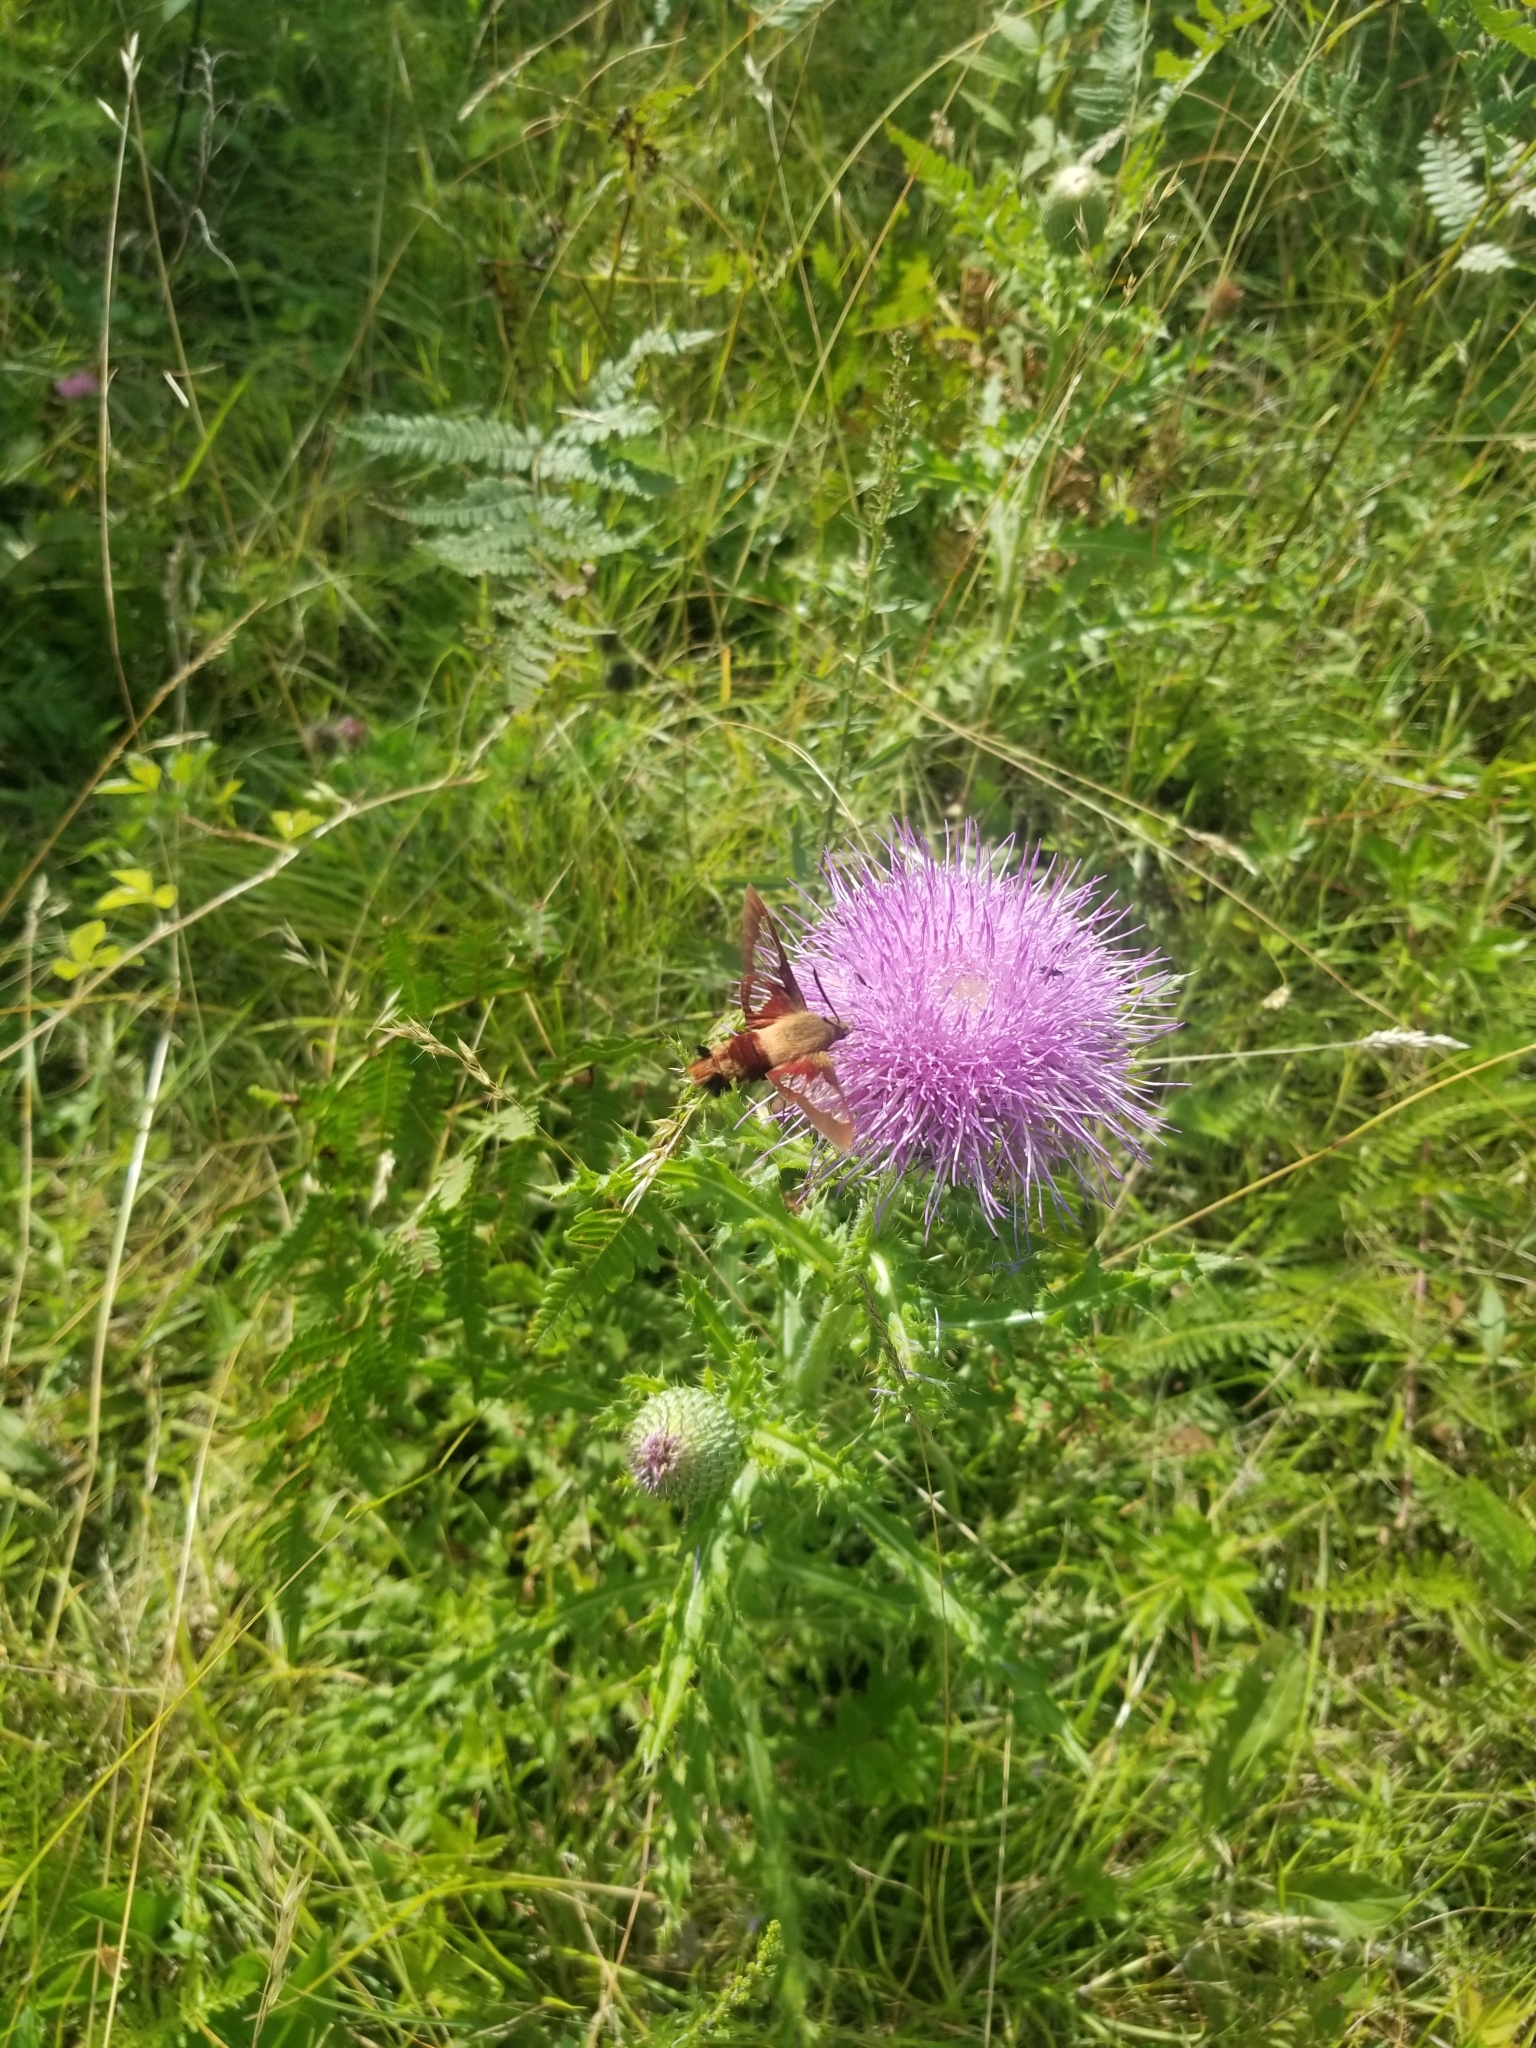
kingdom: Animalia
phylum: Arthropoda
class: Insecta
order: Lepidoptera
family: Sphingidae
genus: Hemaris
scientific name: Hemaris thysbe
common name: Common clear-wing
